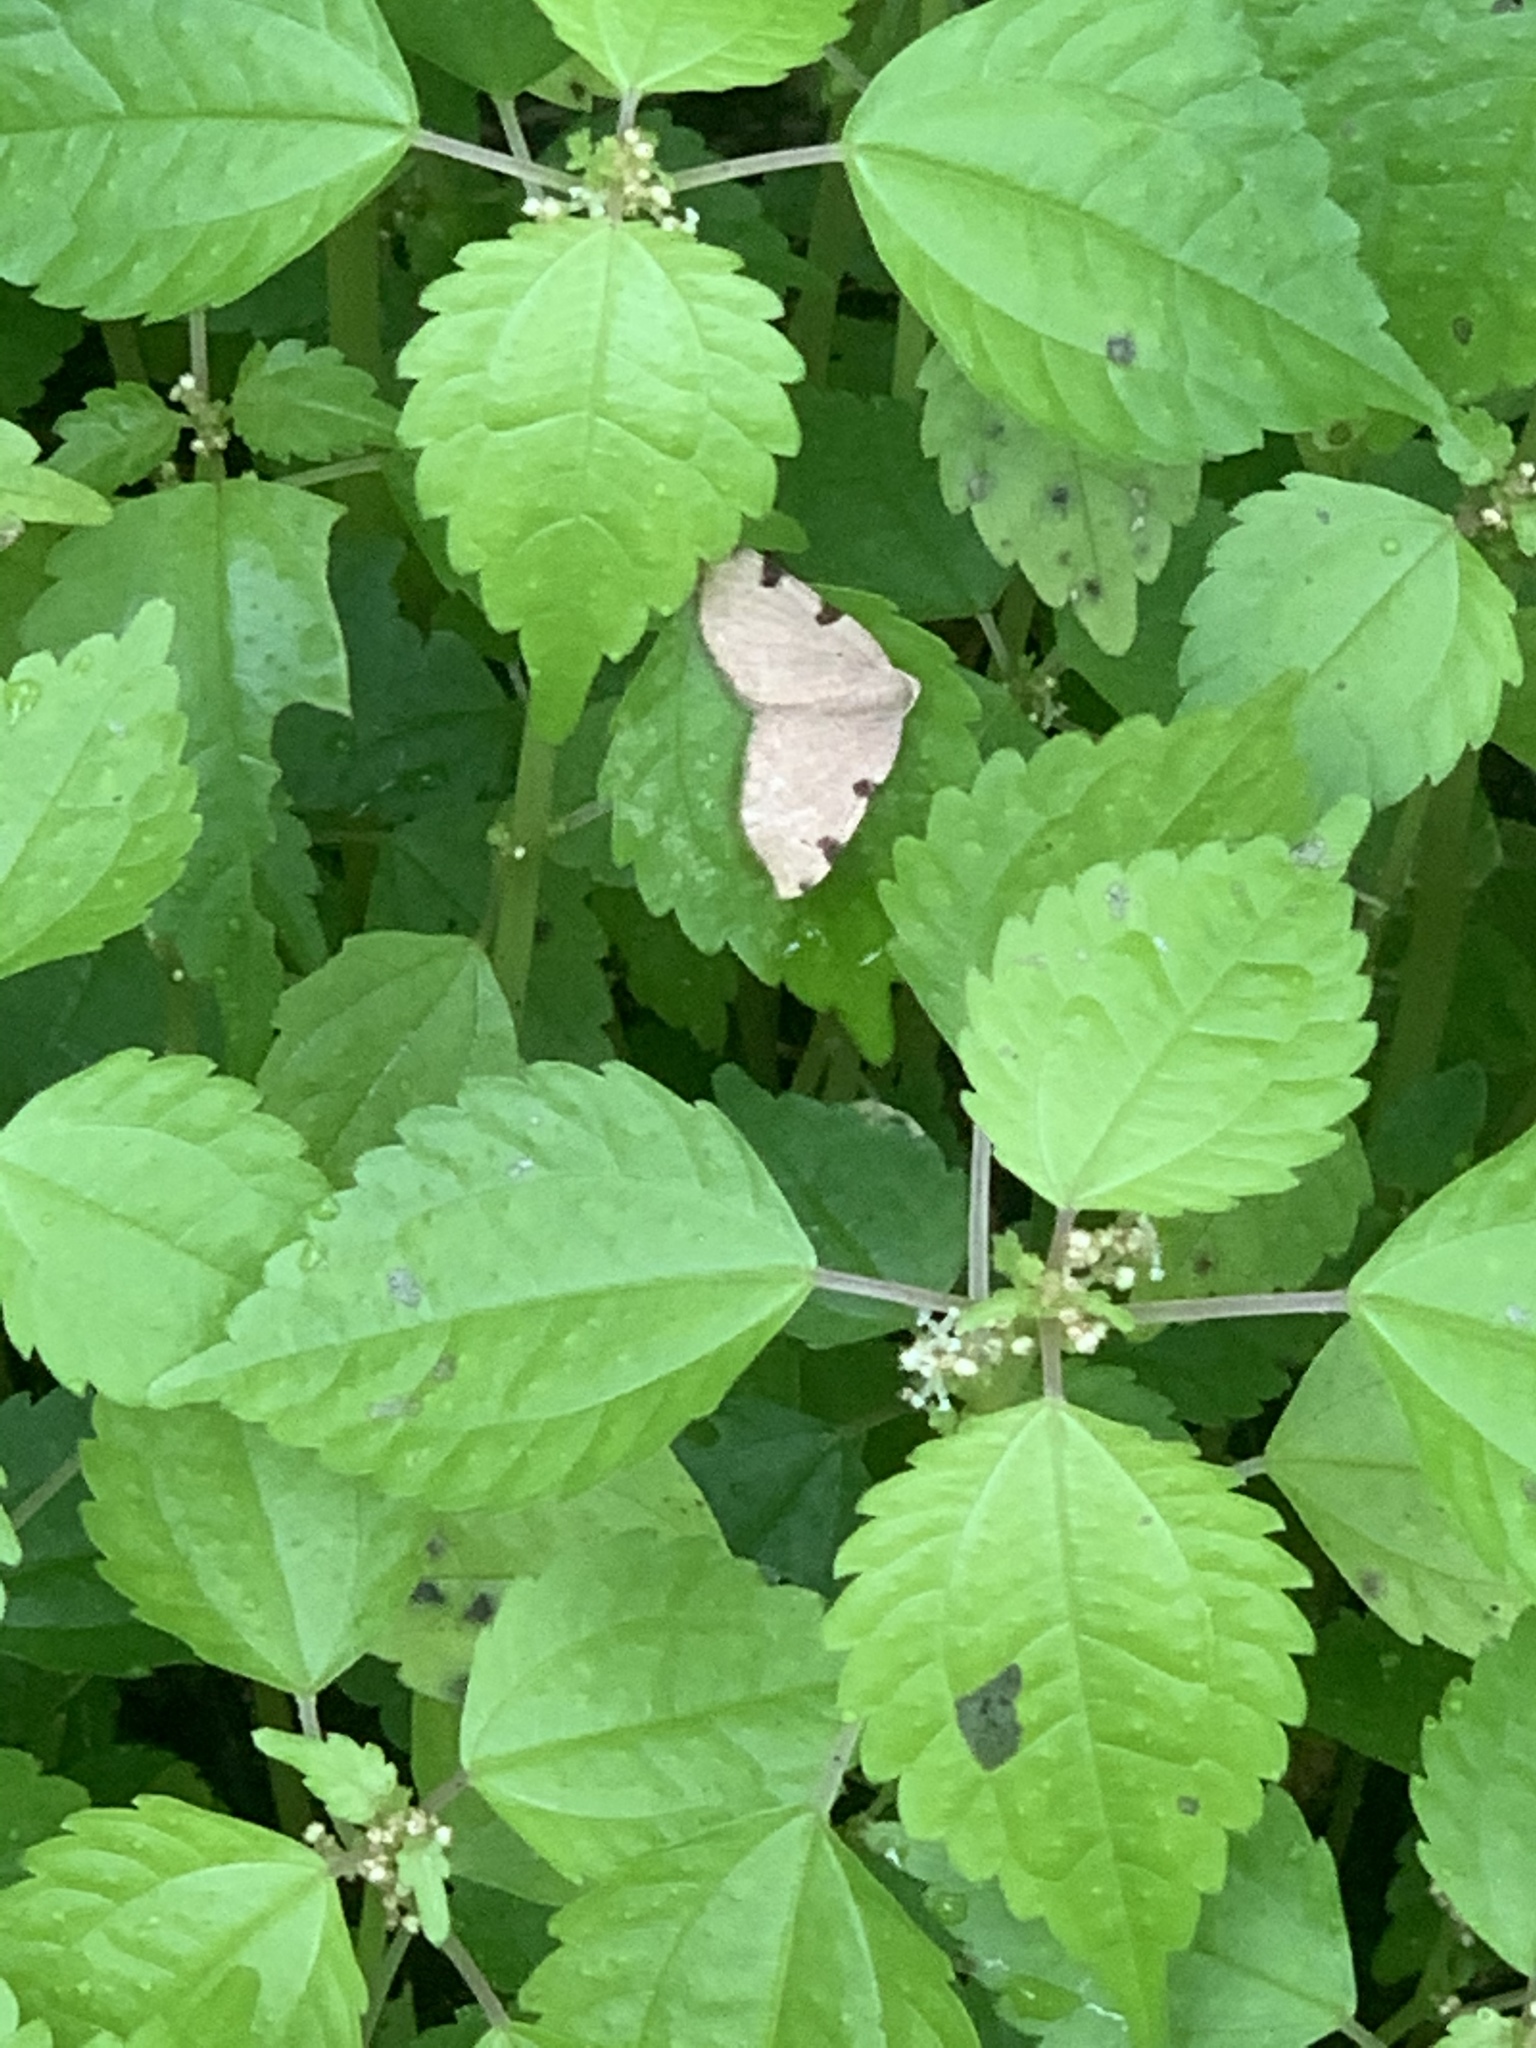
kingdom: Animalia
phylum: Arthropoda
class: Insecta
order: Lepidoptera
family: Geometridae
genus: Heterophleps
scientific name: Heterophleps triguttaria
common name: Three-spotted fillip
